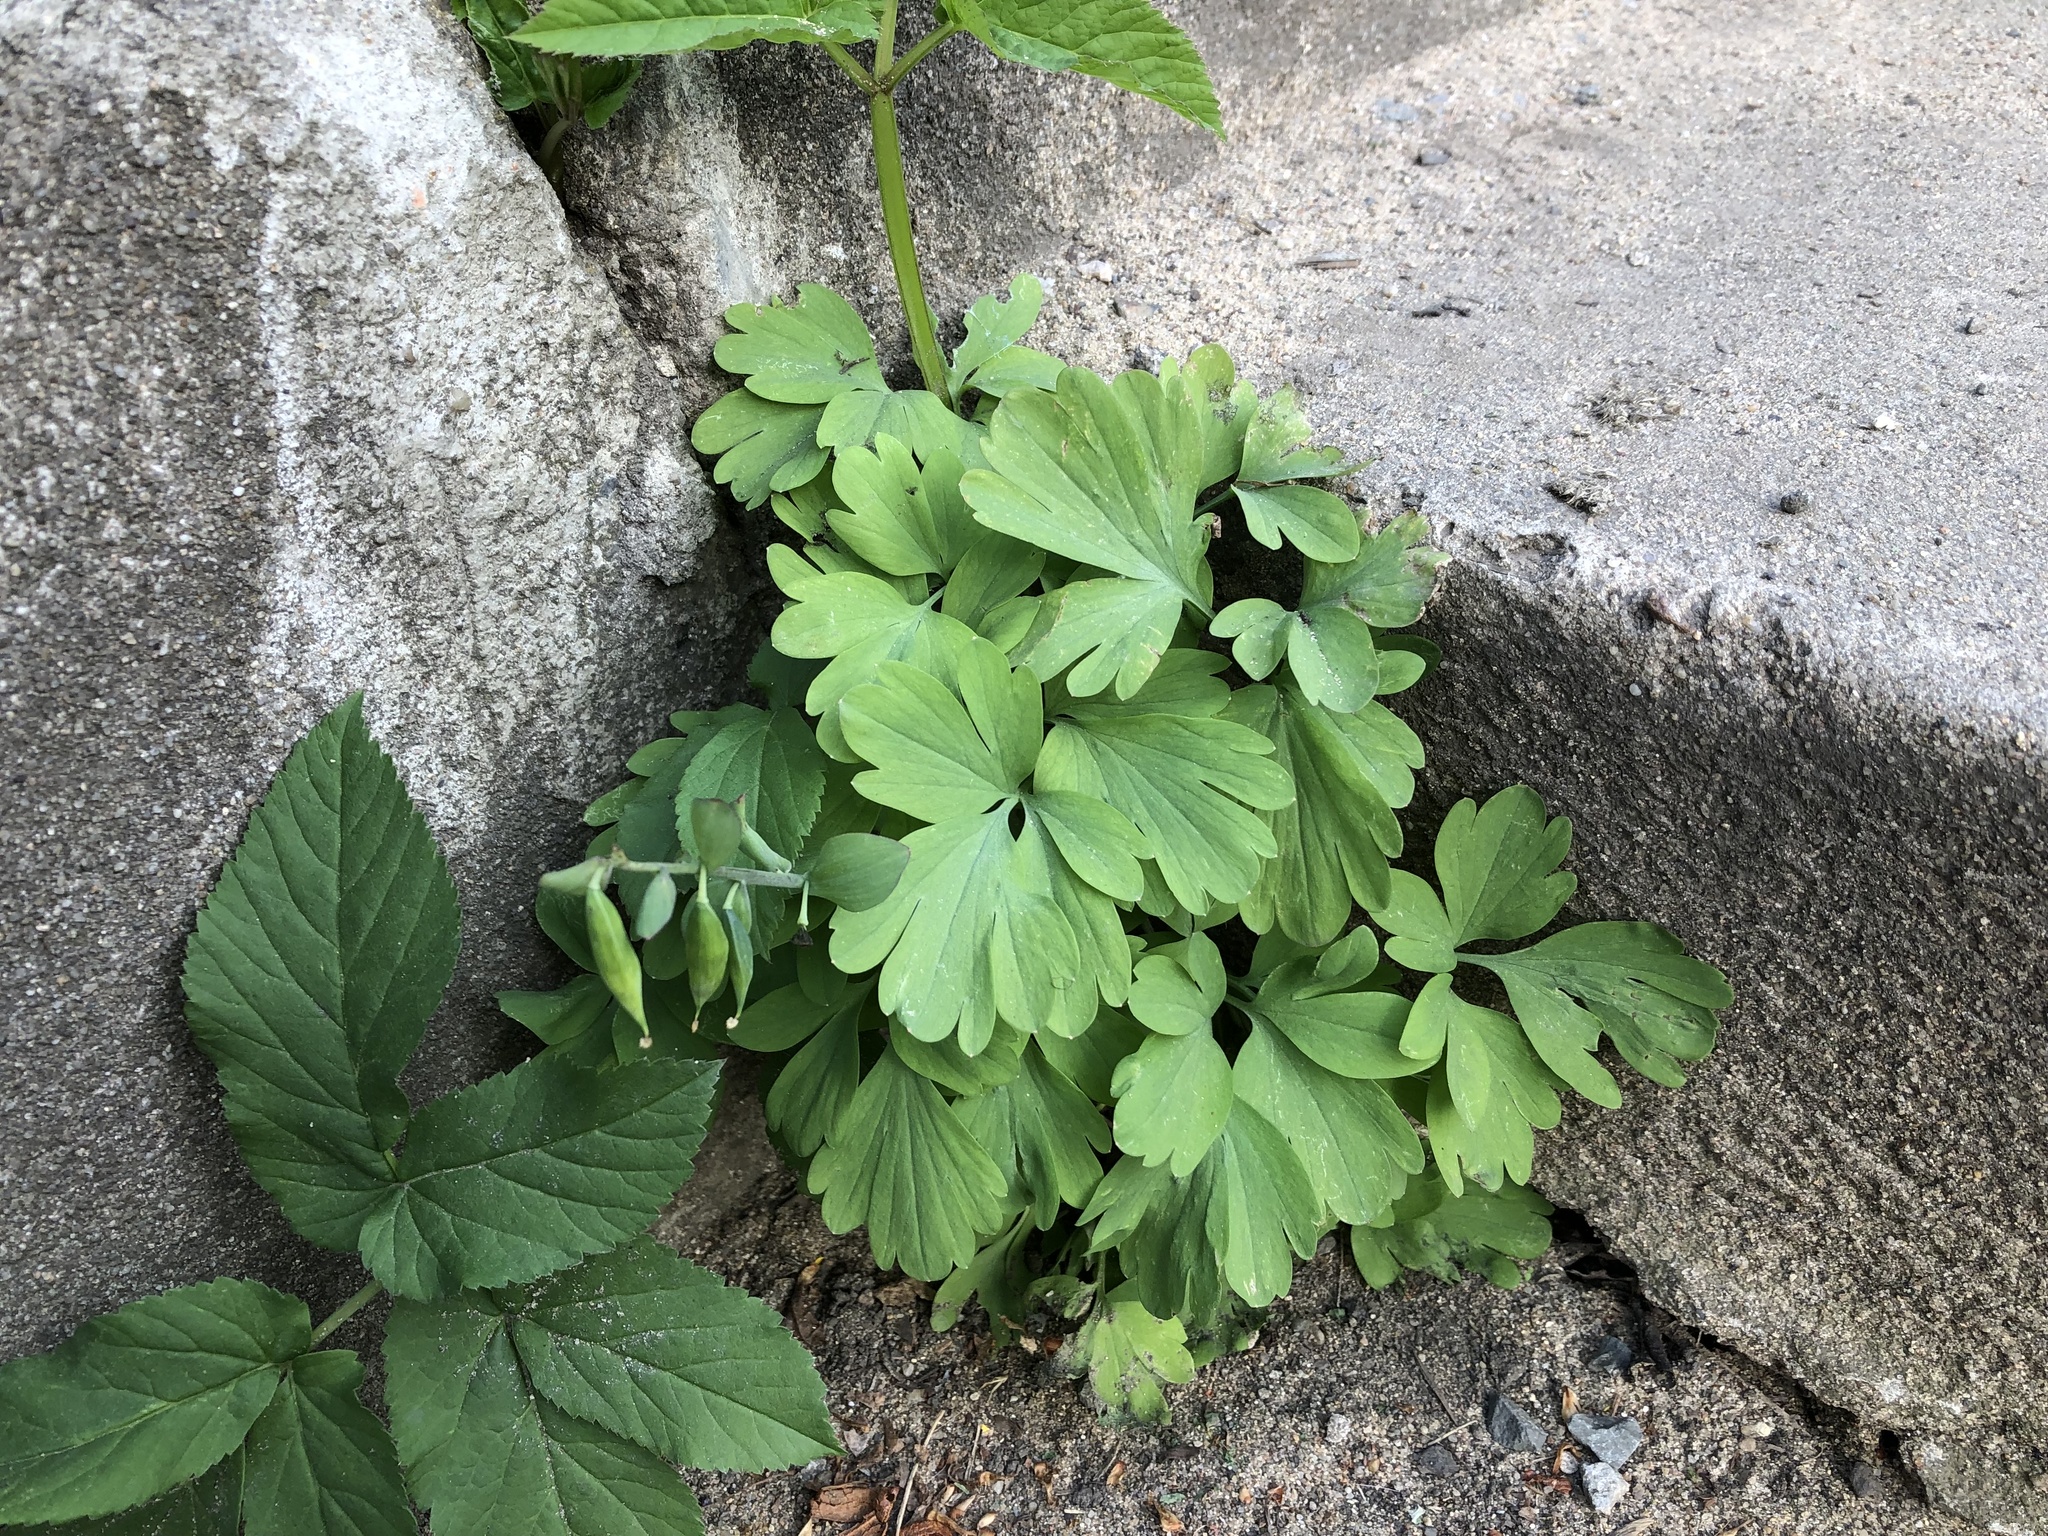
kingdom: Plantae
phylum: Tracheophyta
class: Magnoliopsida
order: Ranunculales
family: Papaveraceae
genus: Corydalis
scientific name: Corydalis cava
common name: Hollowroot
